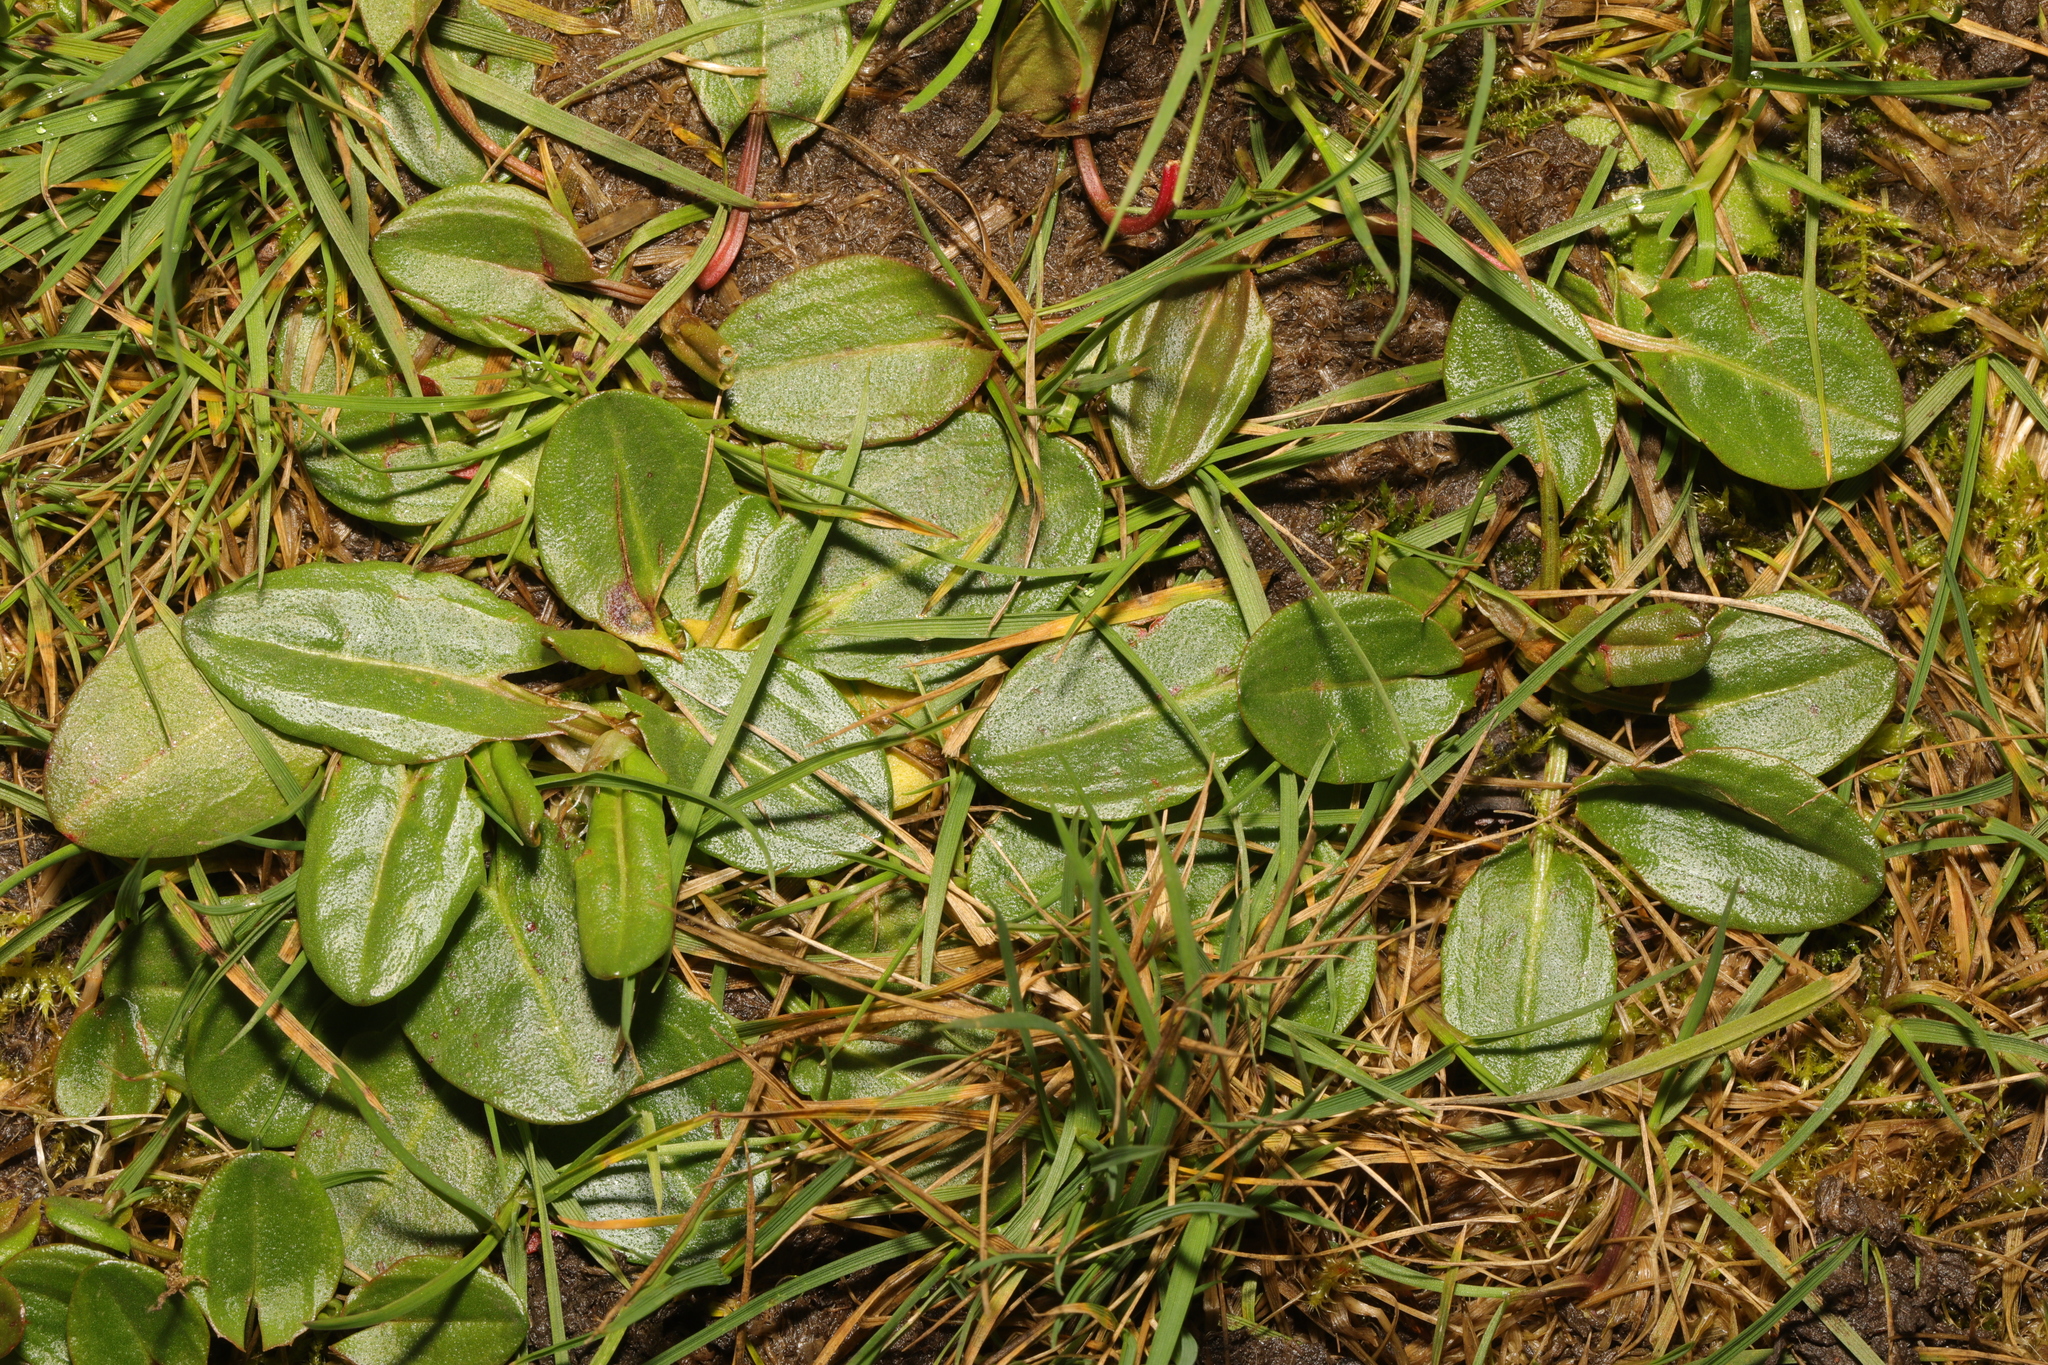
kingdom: Plantae
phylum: Tracheophyta
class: Magnoliopsida
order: Caryophyllales
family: Polygonaceae
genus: Rumex
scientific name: Rumex acetosa
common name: Garden sorrel
